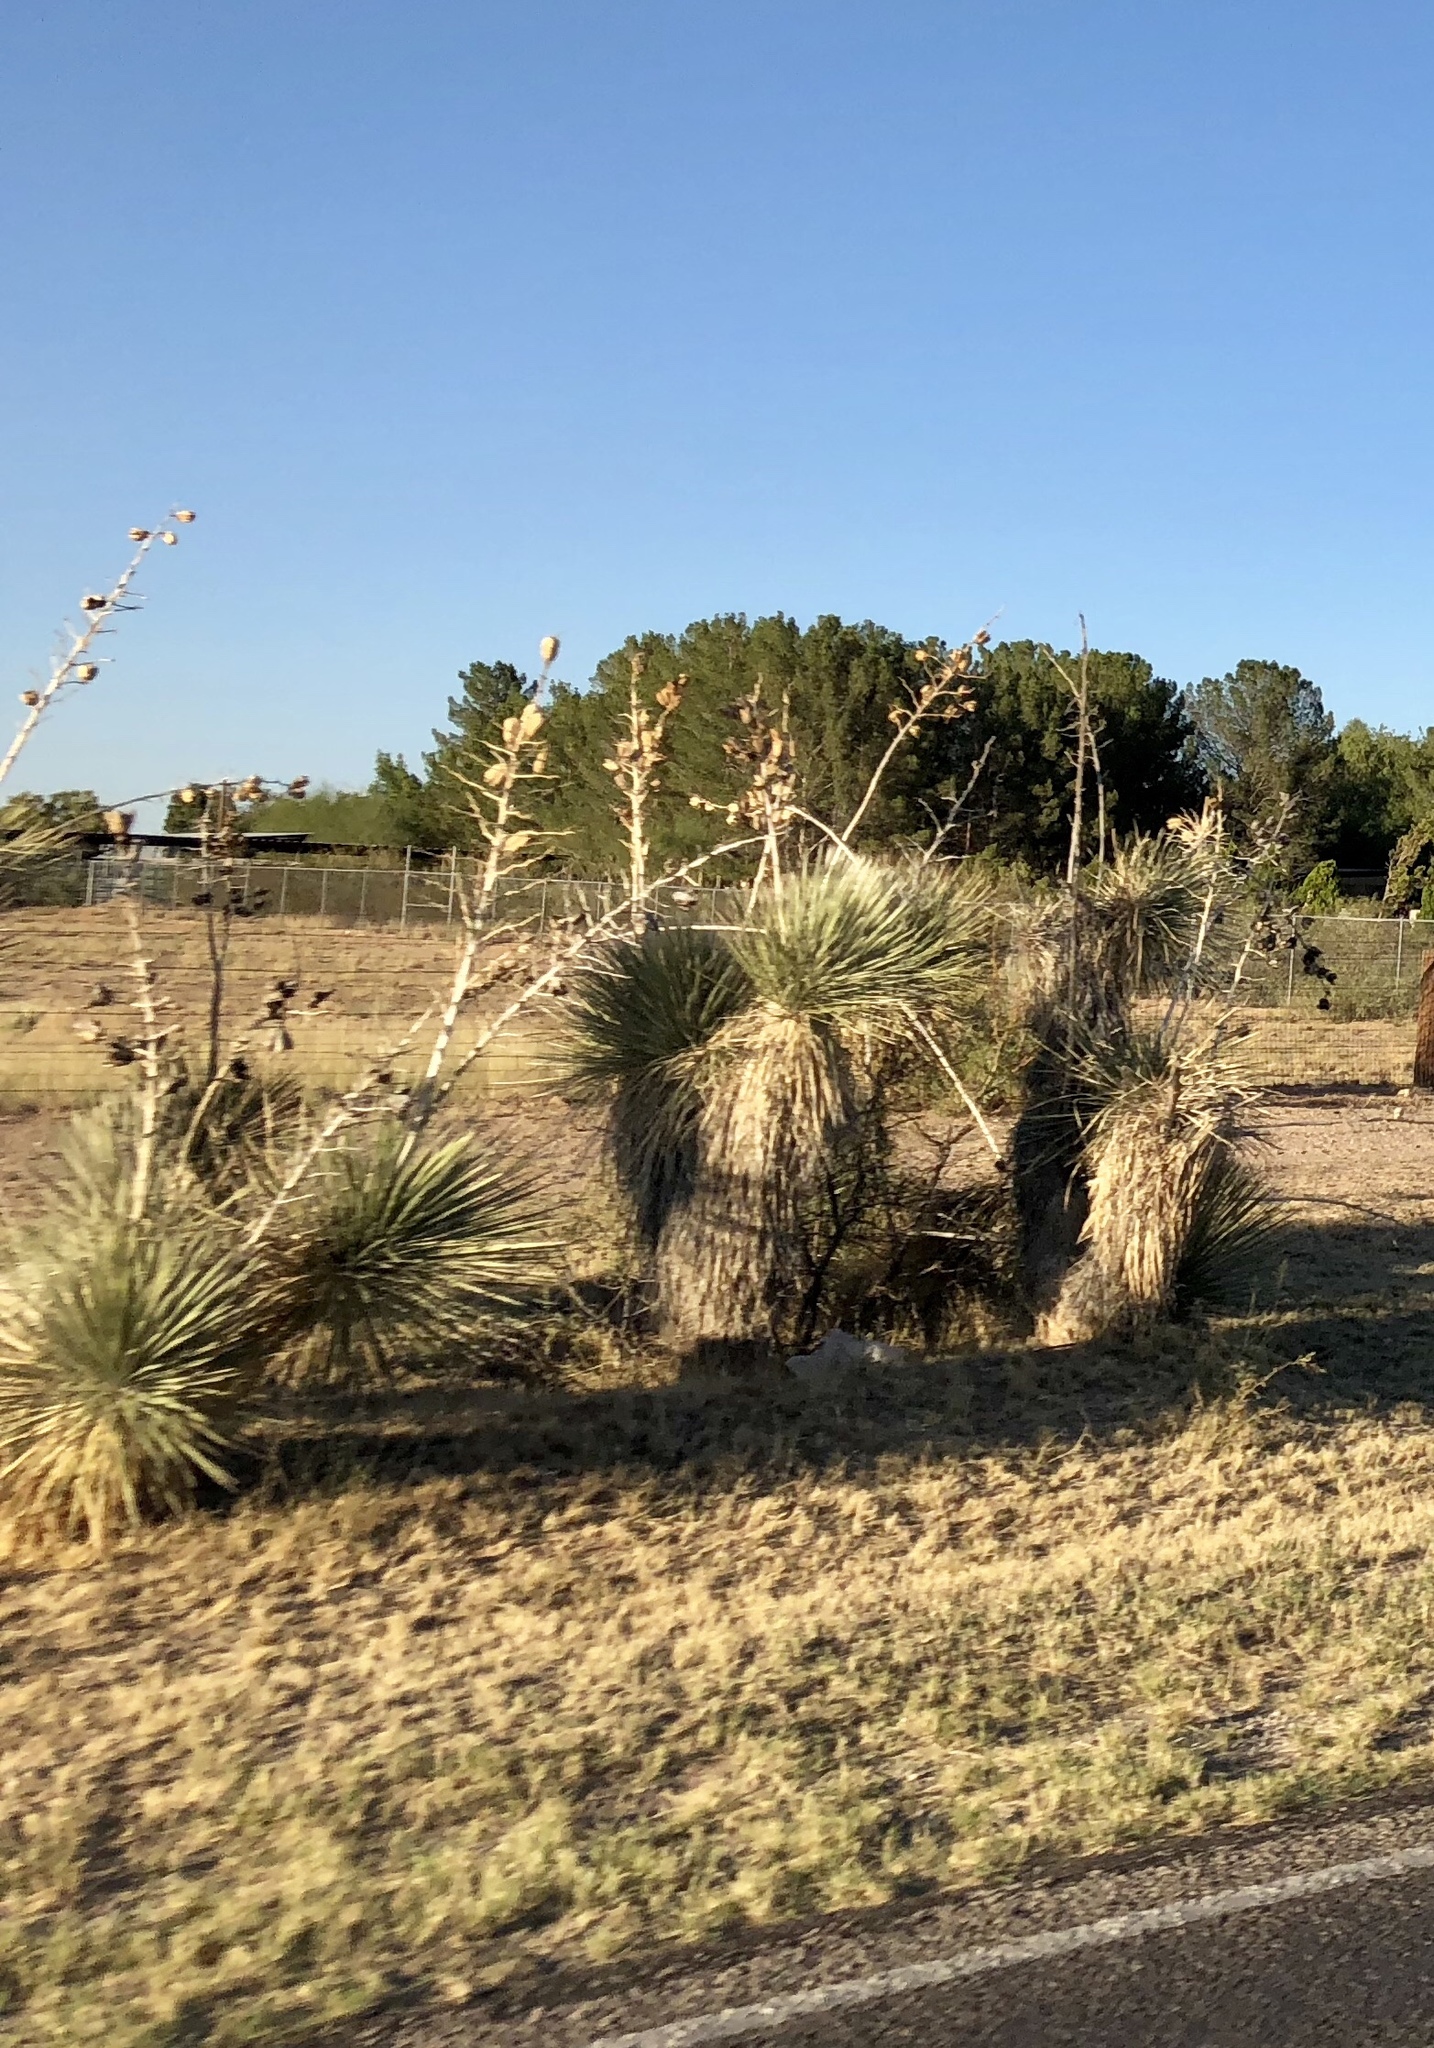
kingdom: Plantae
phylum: Tracheophyta
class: Liliopsida
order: Asparagales
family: Asparagaceae
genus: Yucca
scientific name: Yucca elata
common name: Palmella
